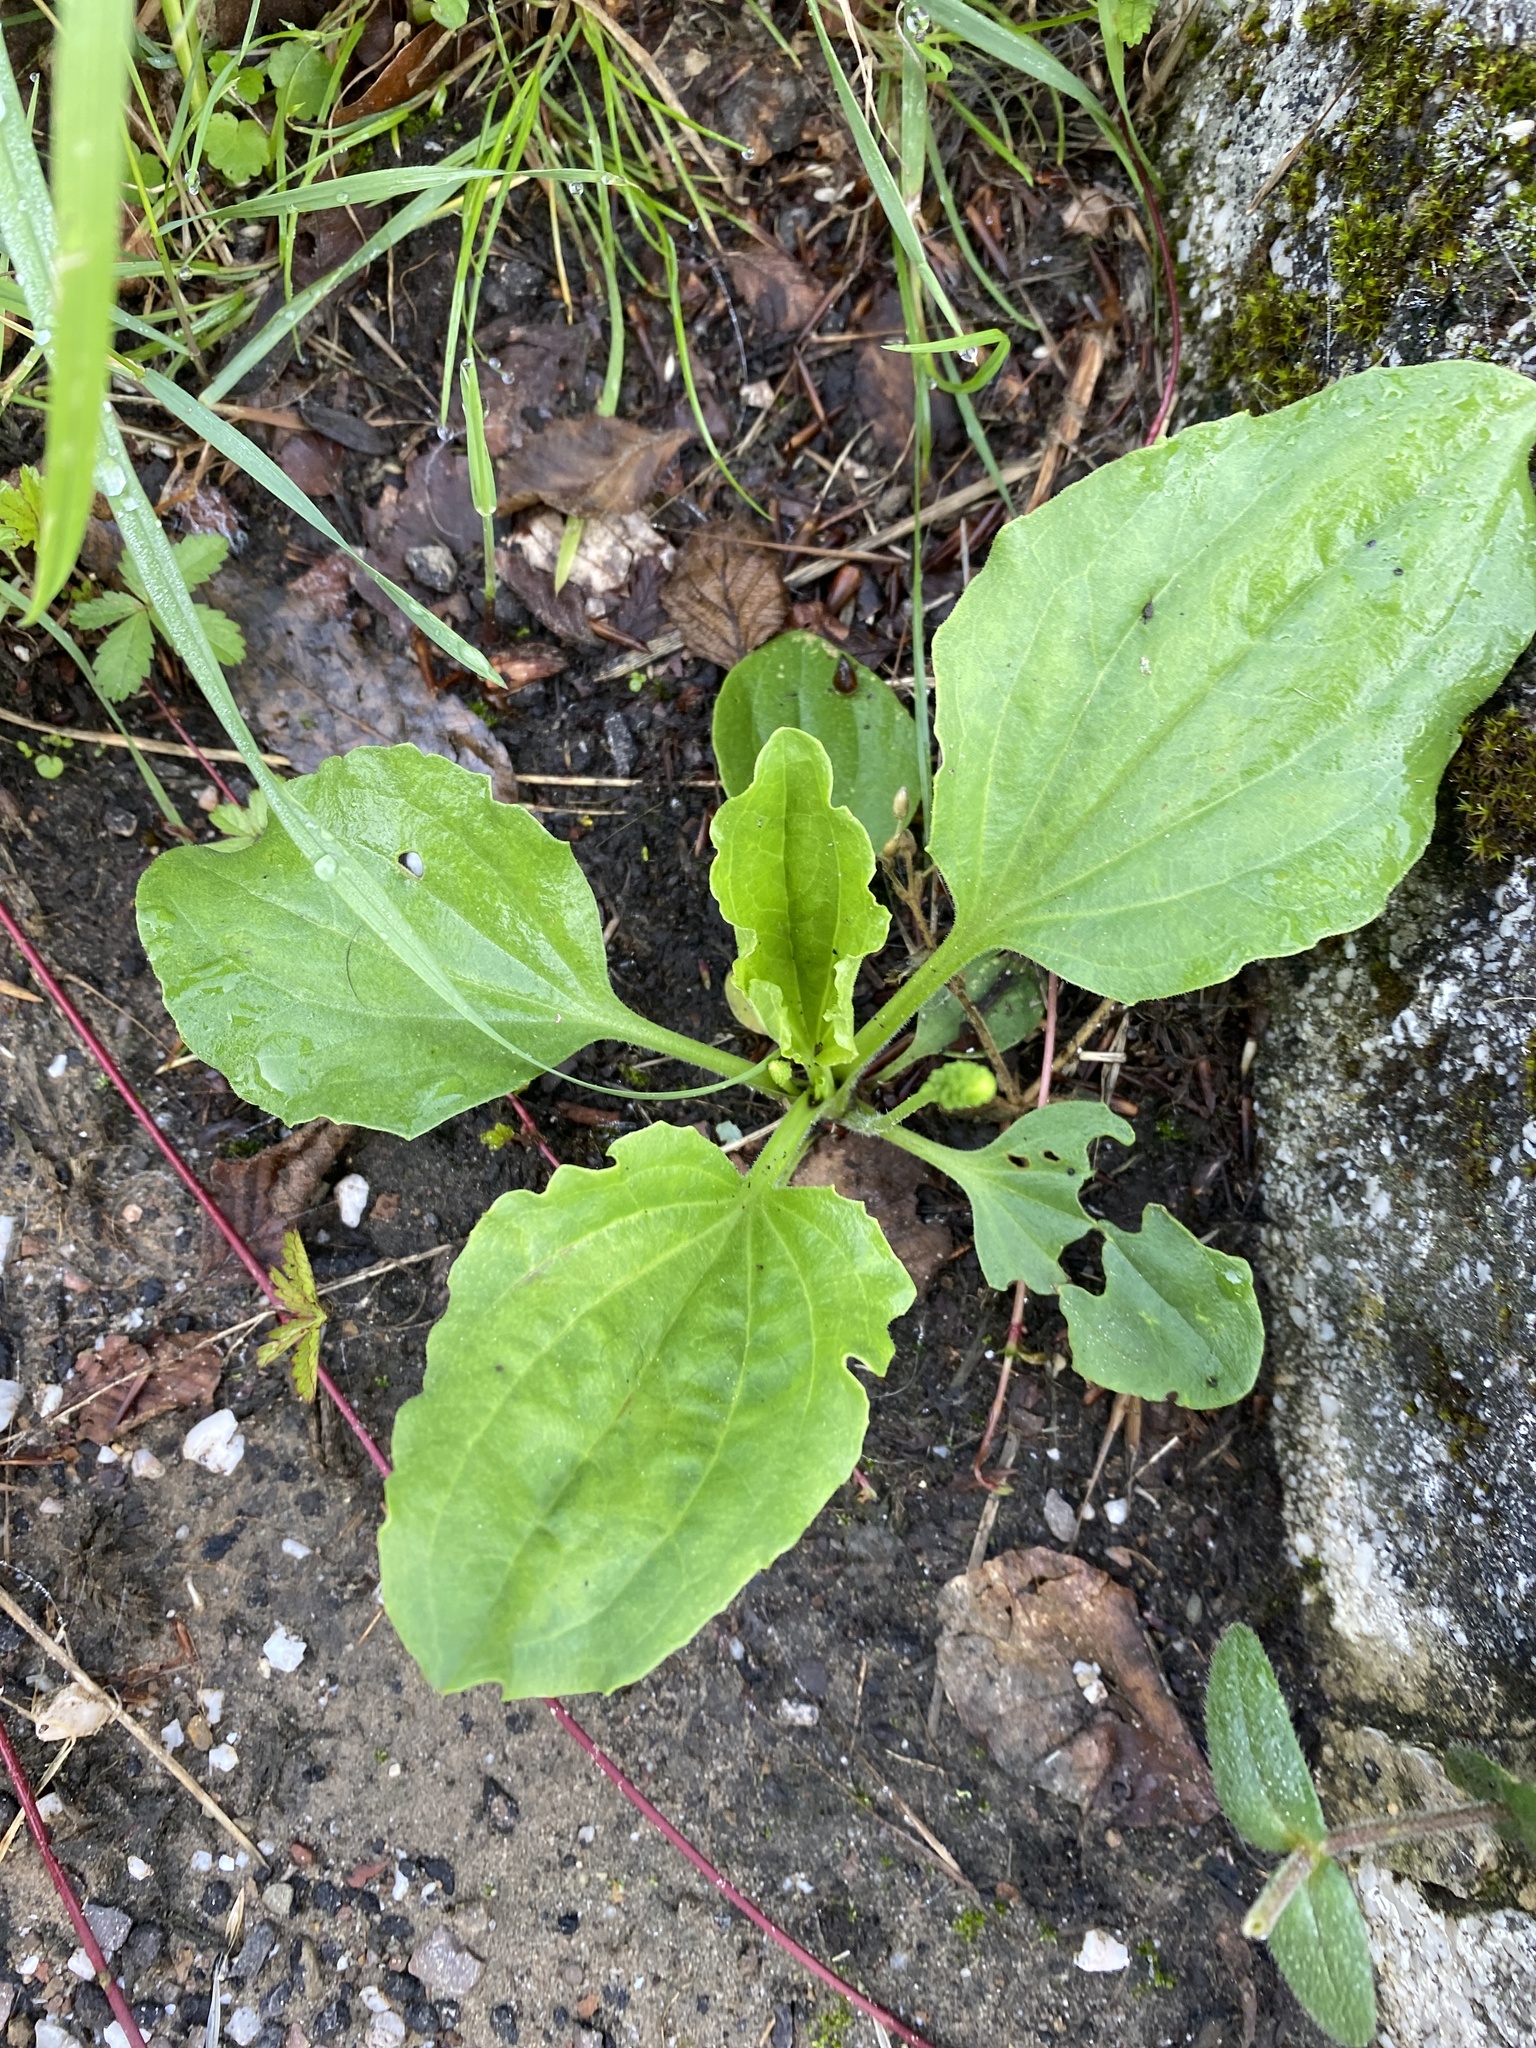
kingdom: Plantae
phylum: Tracheophyta
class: Magnoliopsida
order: Lamiales
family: Plantaginaceae
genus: Plantago
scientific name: Plantago major
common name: Common plantain
